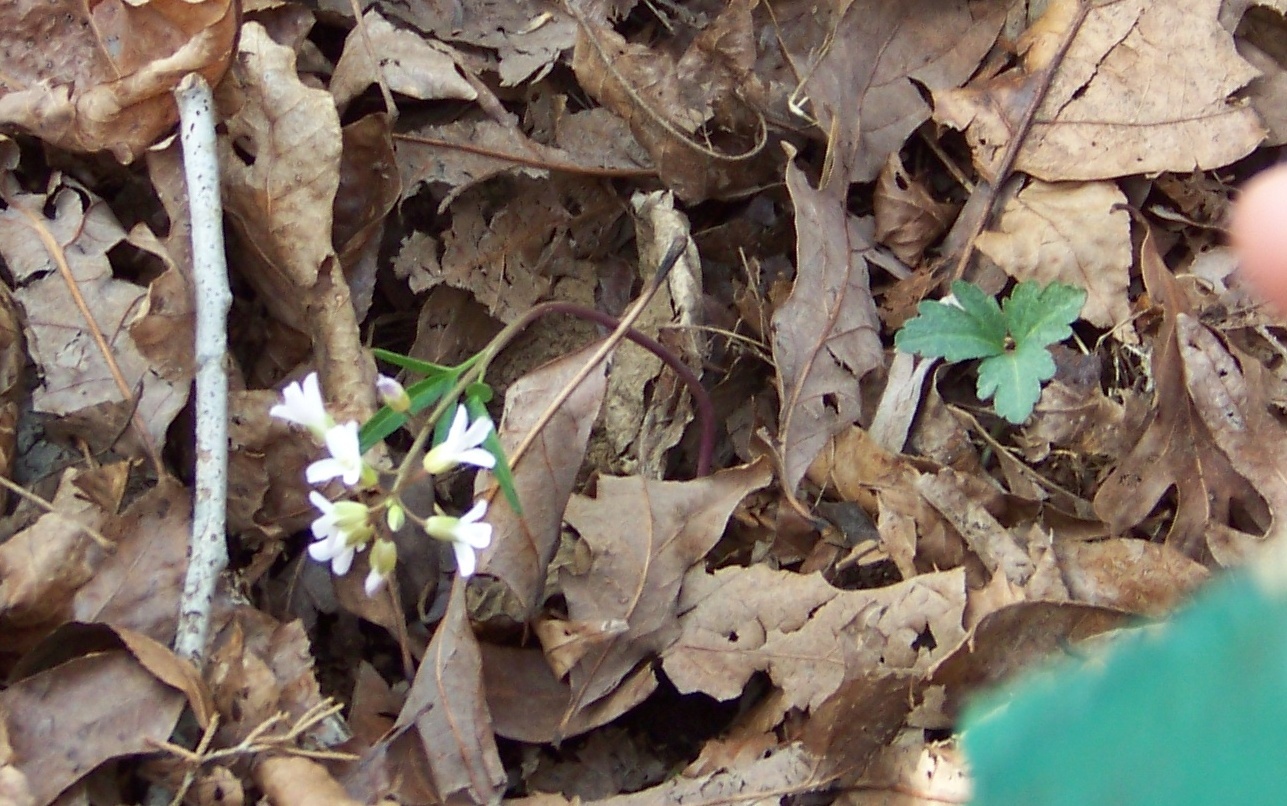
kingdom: Plantae
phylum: Tracheophyta
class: Magnoliopsida
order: Brassicales
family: Brassicaceae
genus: Cardamine
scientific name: Cardamine angustata
